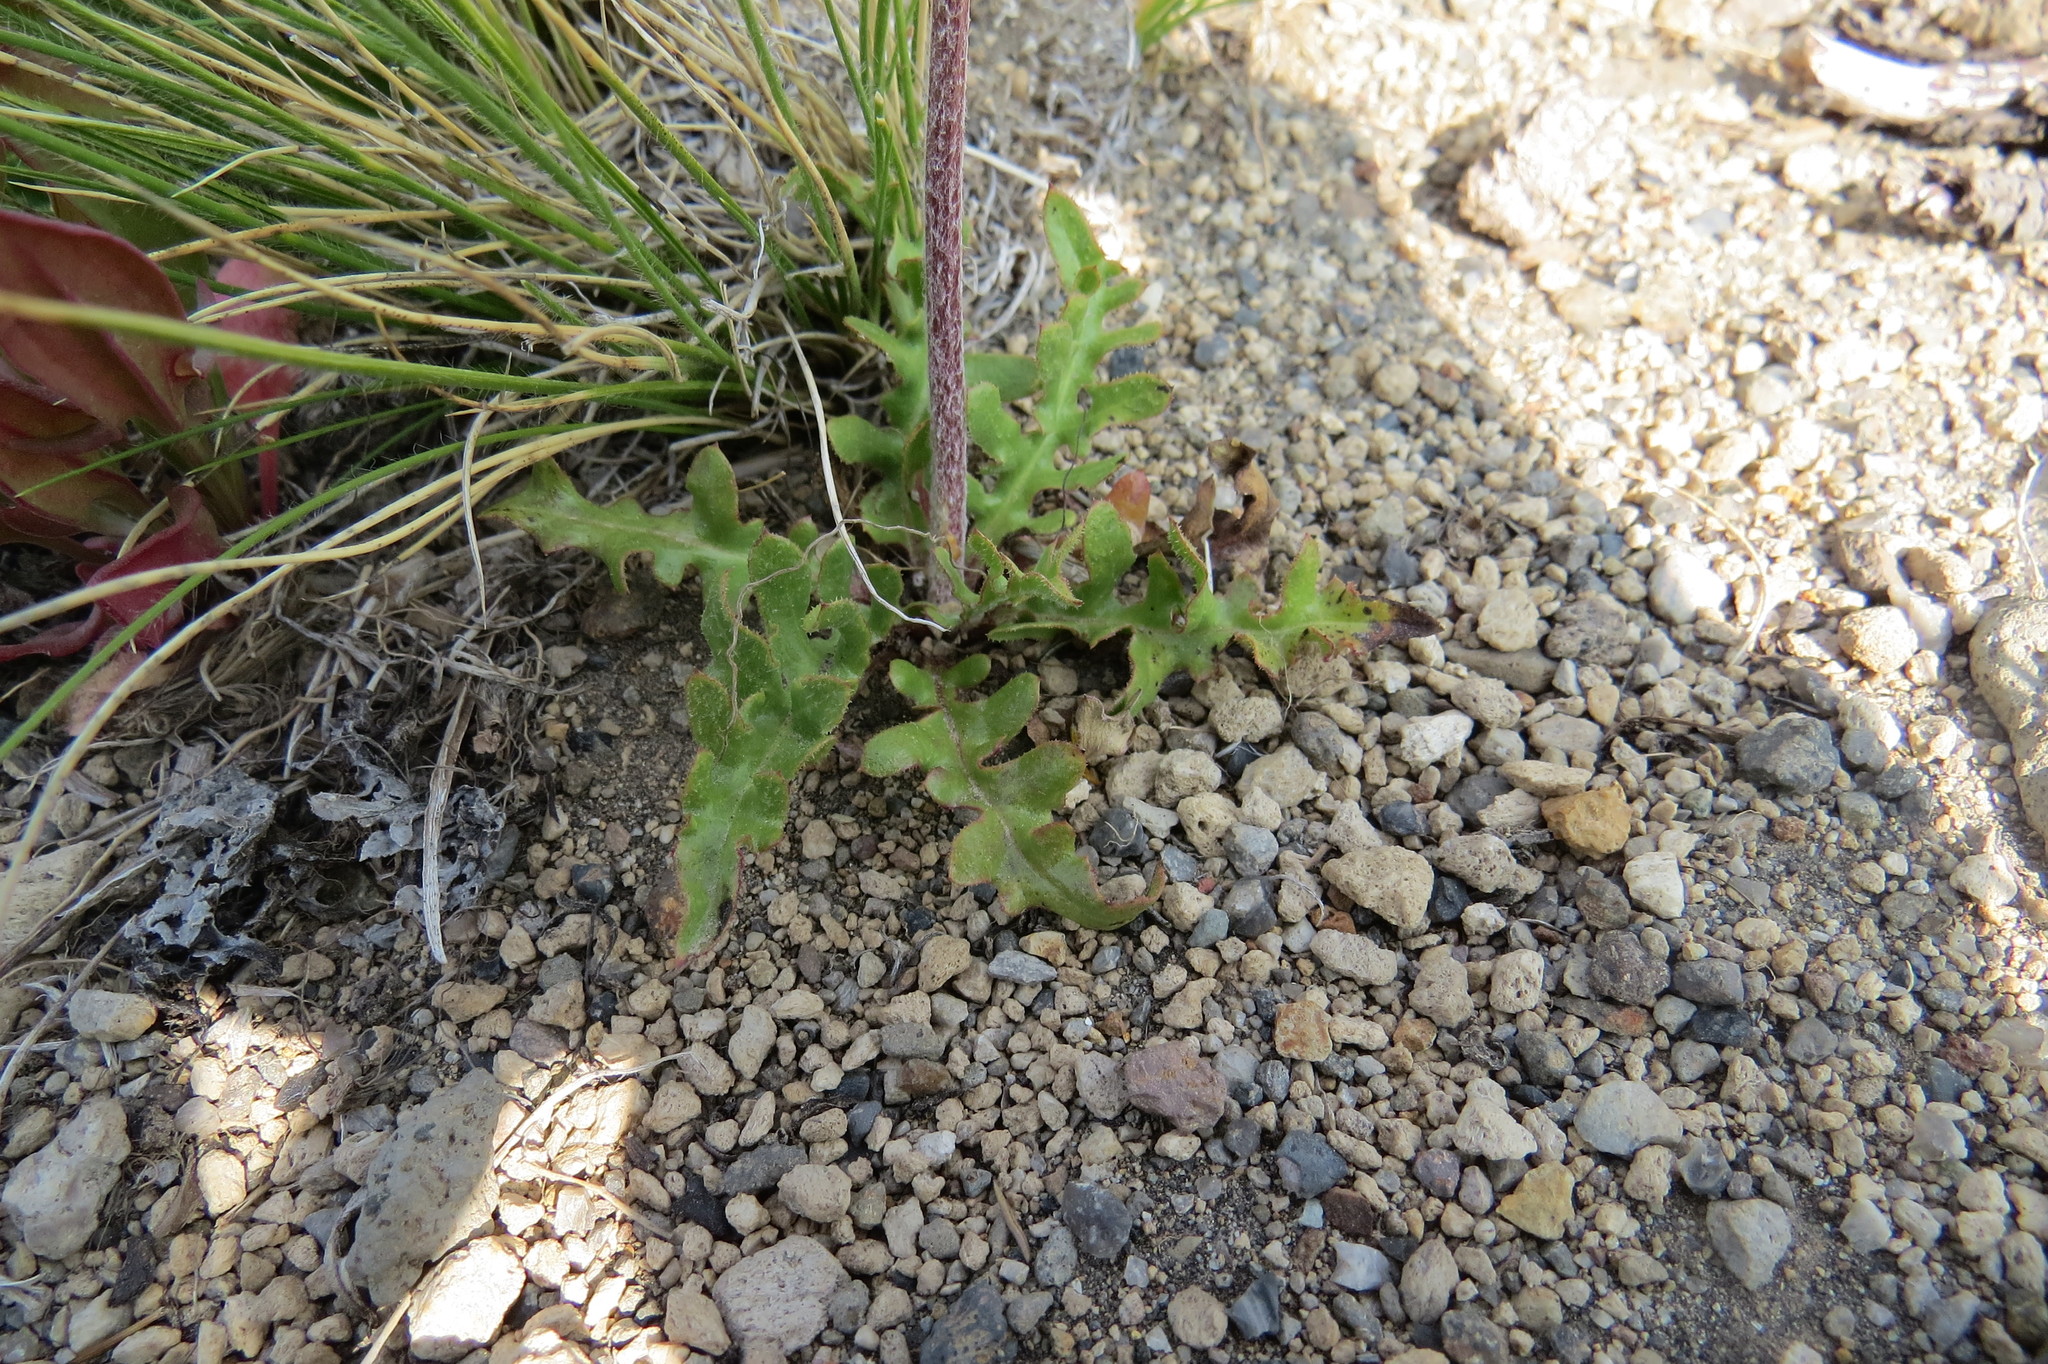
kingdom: Plantae
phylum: Tracheophyta
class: Magnoliopsida
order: Asterales
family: Asteraceae
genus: Hypochaeris
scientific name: Hypochaeris clarionoides
